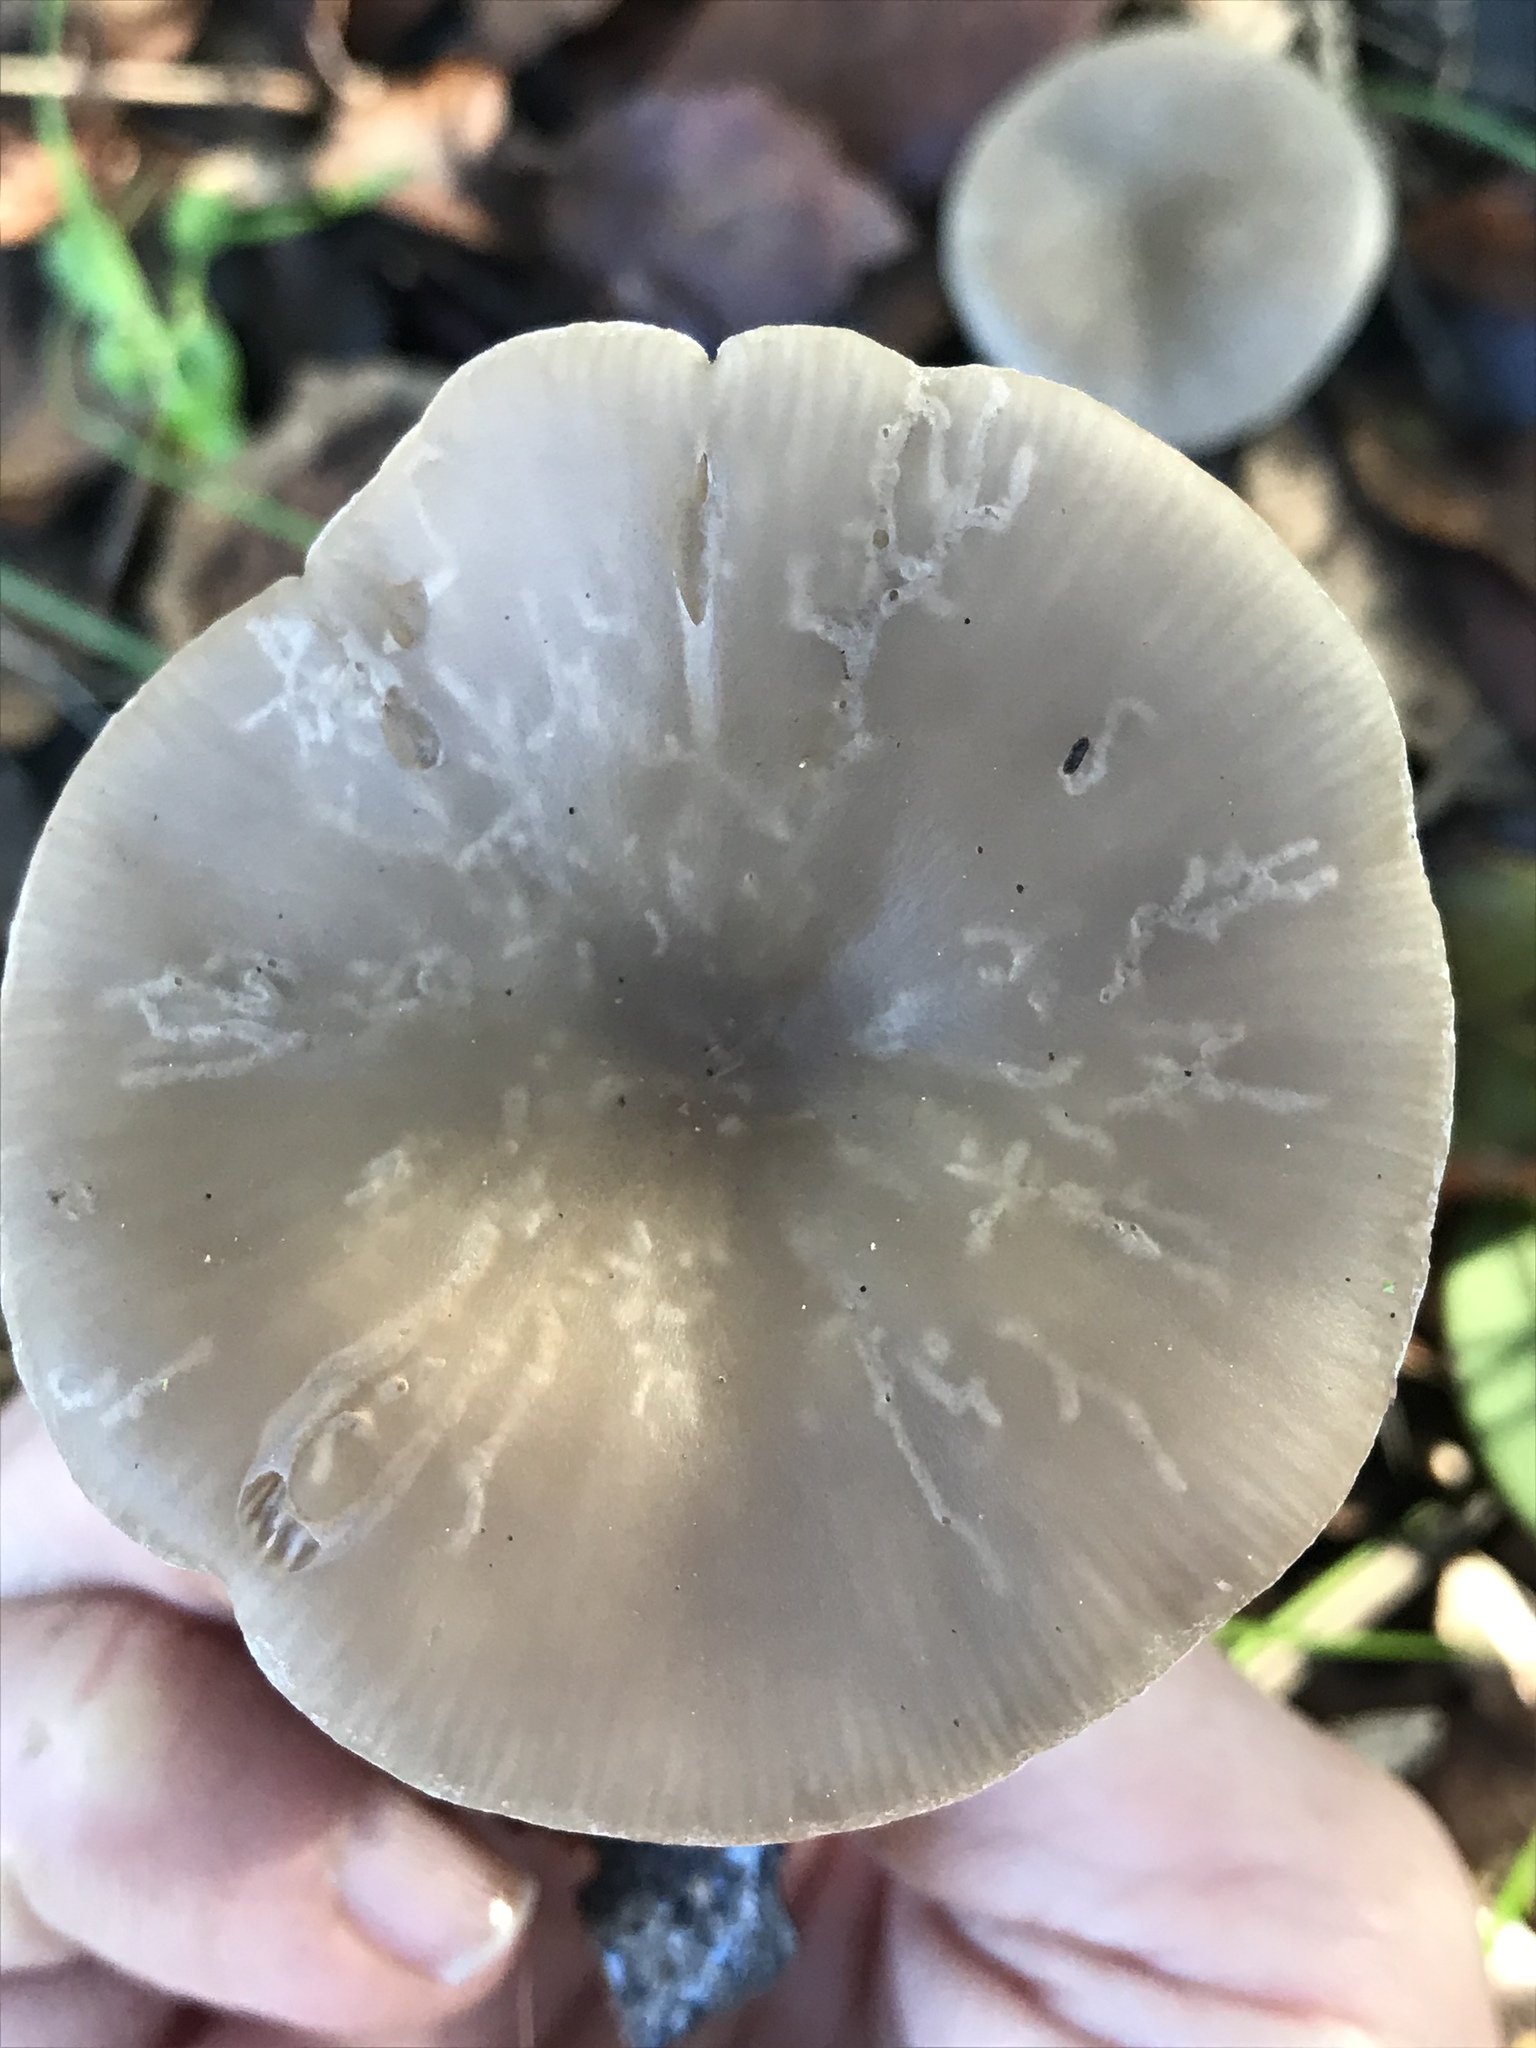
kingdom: Fungi
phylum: Basidiomycota
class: Agaricomycetes
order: Agaricales
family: Tricholomataceae
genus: Clitocybe
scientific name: Clitocybe fragrans
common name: Fragrant funnel
